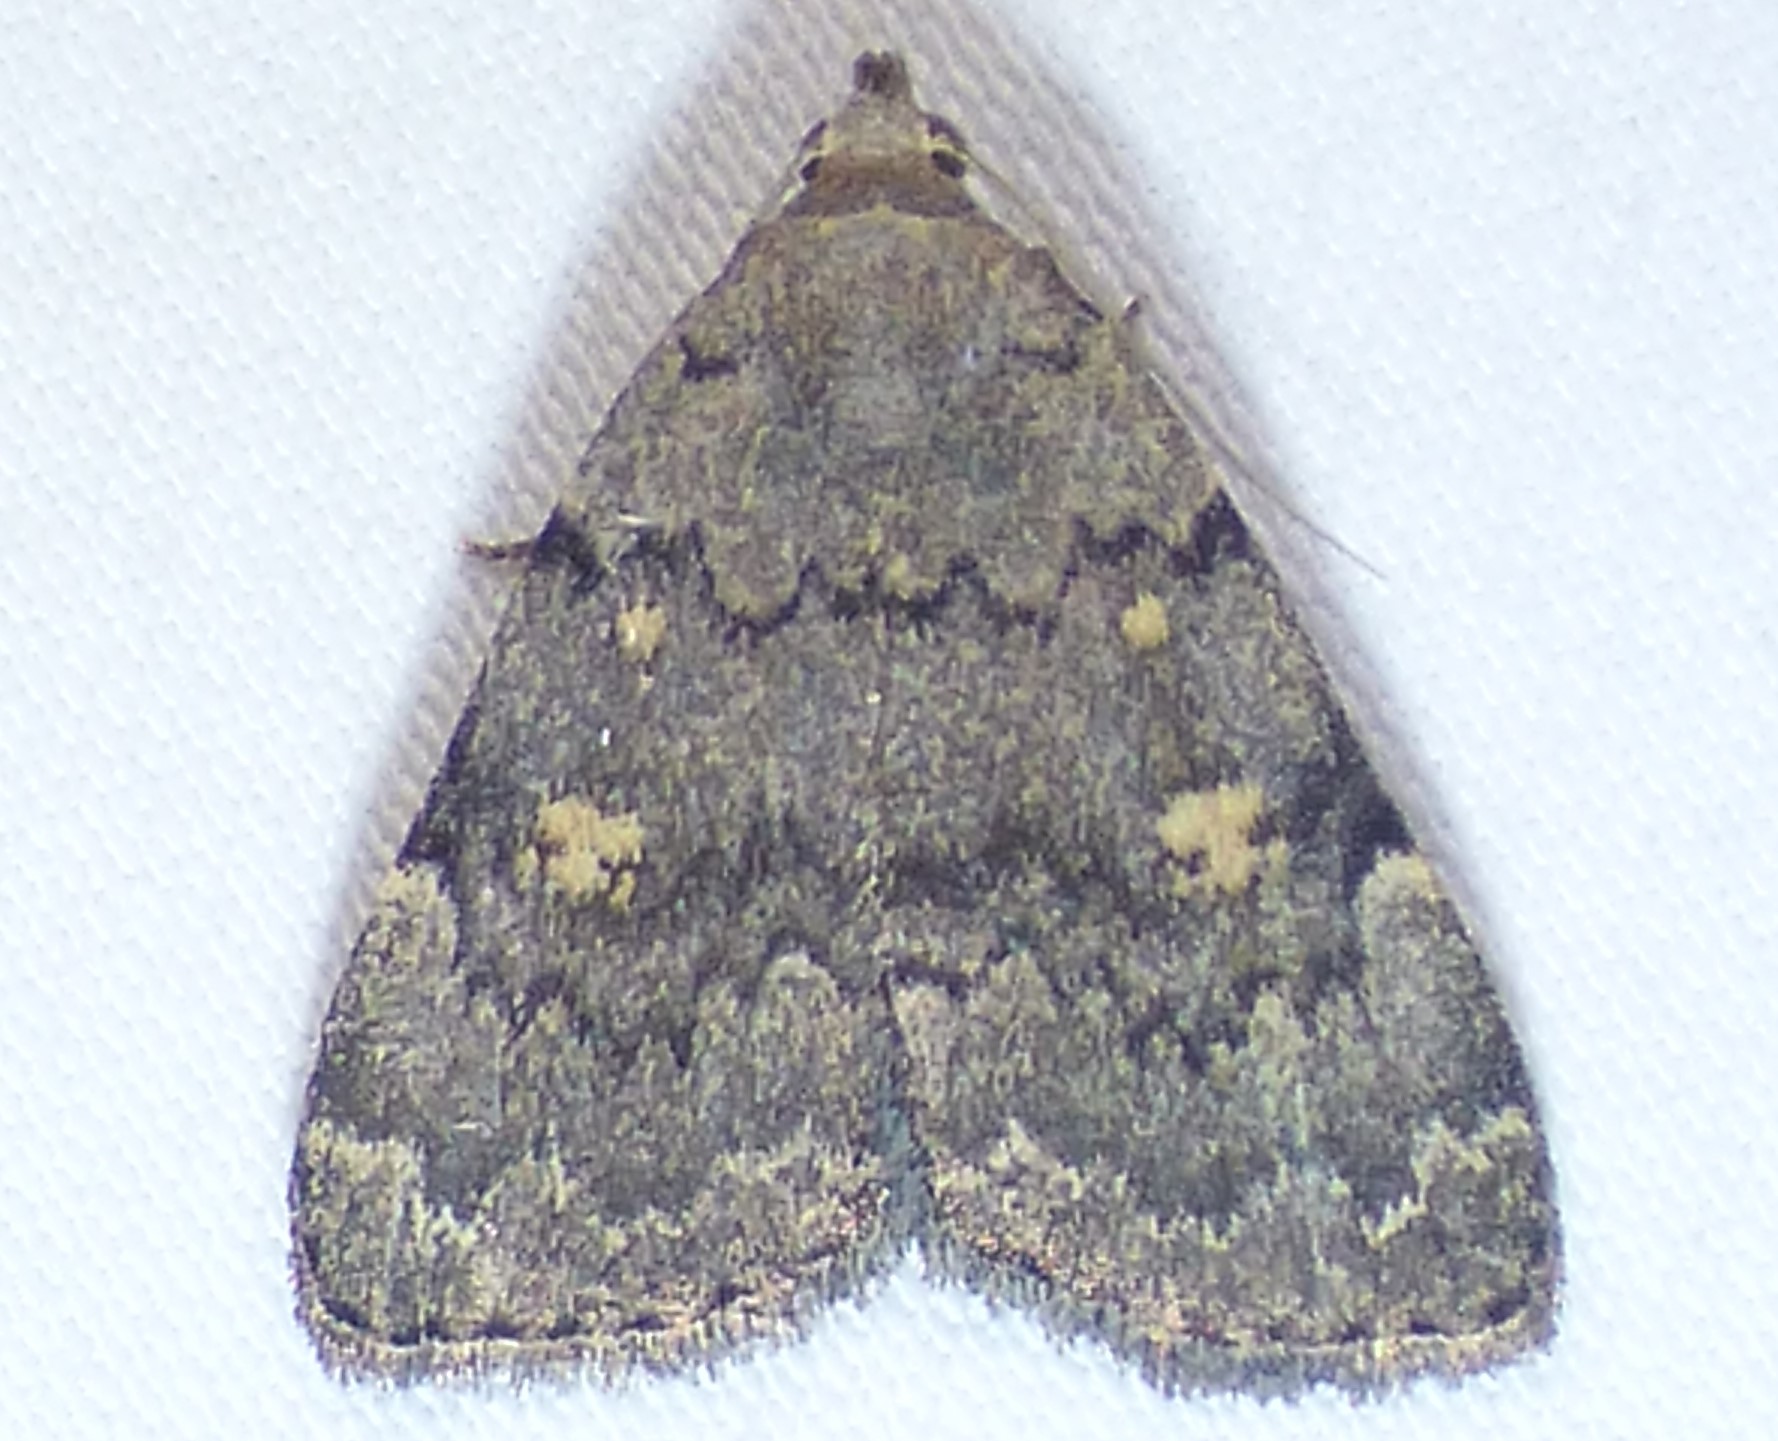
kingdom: Animalia
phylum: Arthropoda
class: Insecta
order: Lepidoptera
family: Erebidae
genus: Idia
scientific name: Idia aemula
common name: Common idia moth
